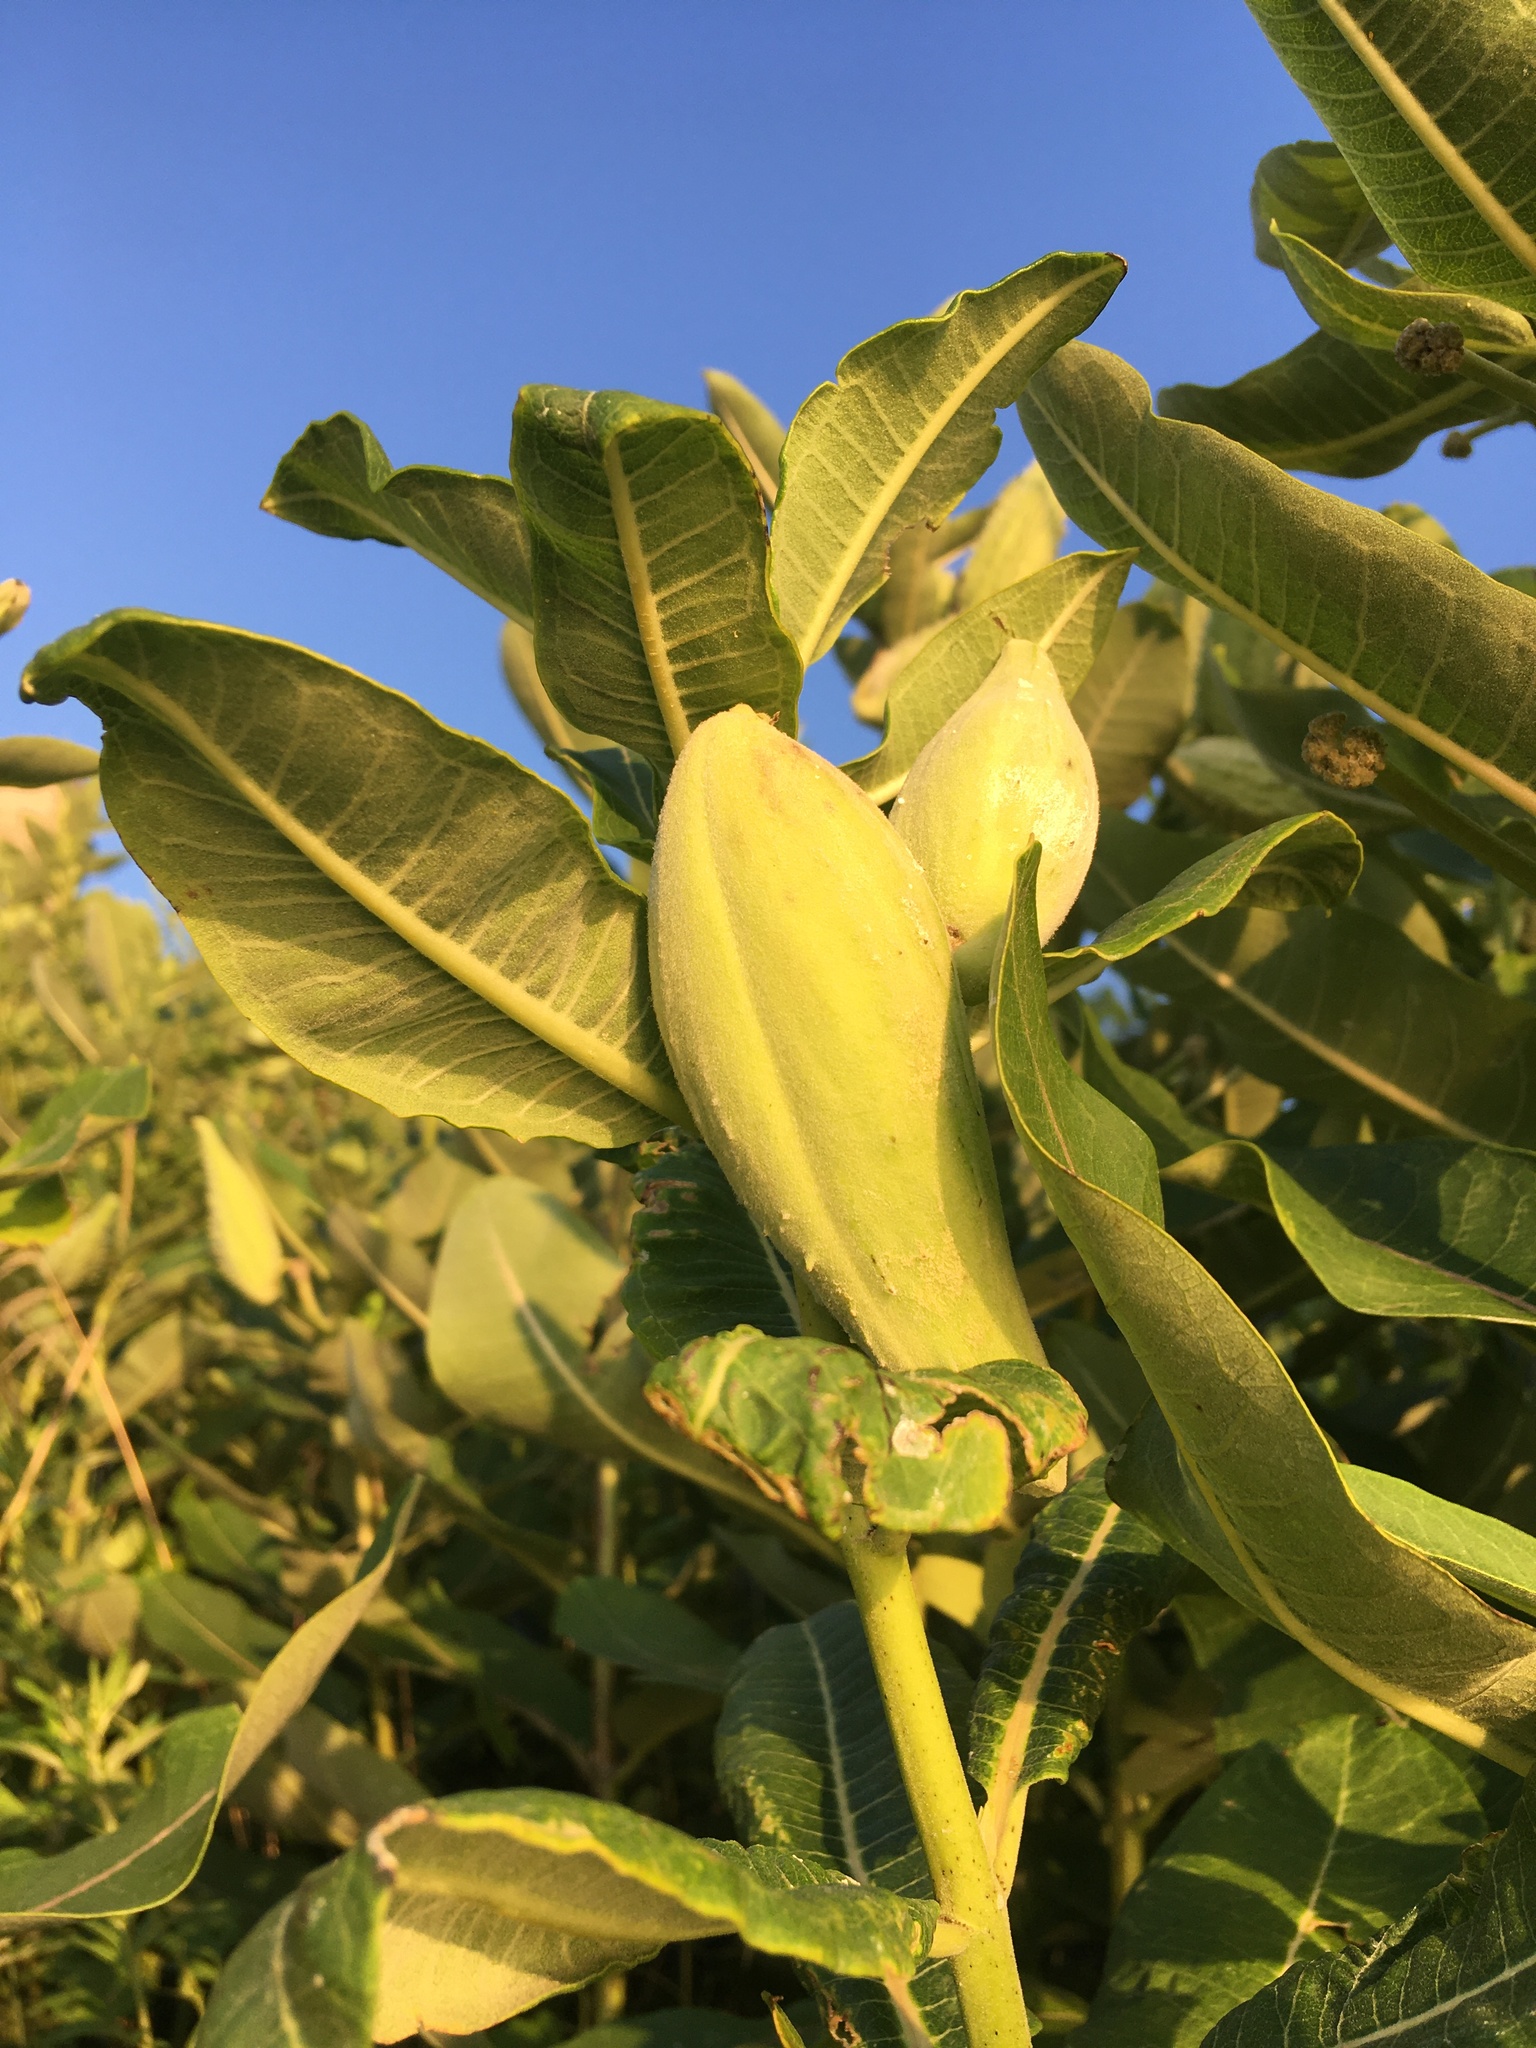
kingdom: Plantae
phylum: Tracheophyta
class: Magnoliopsida
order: Gentianales
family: Apocynaceae
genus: Asclepias
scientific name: Asclepias syriaca
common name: Common milkweed
